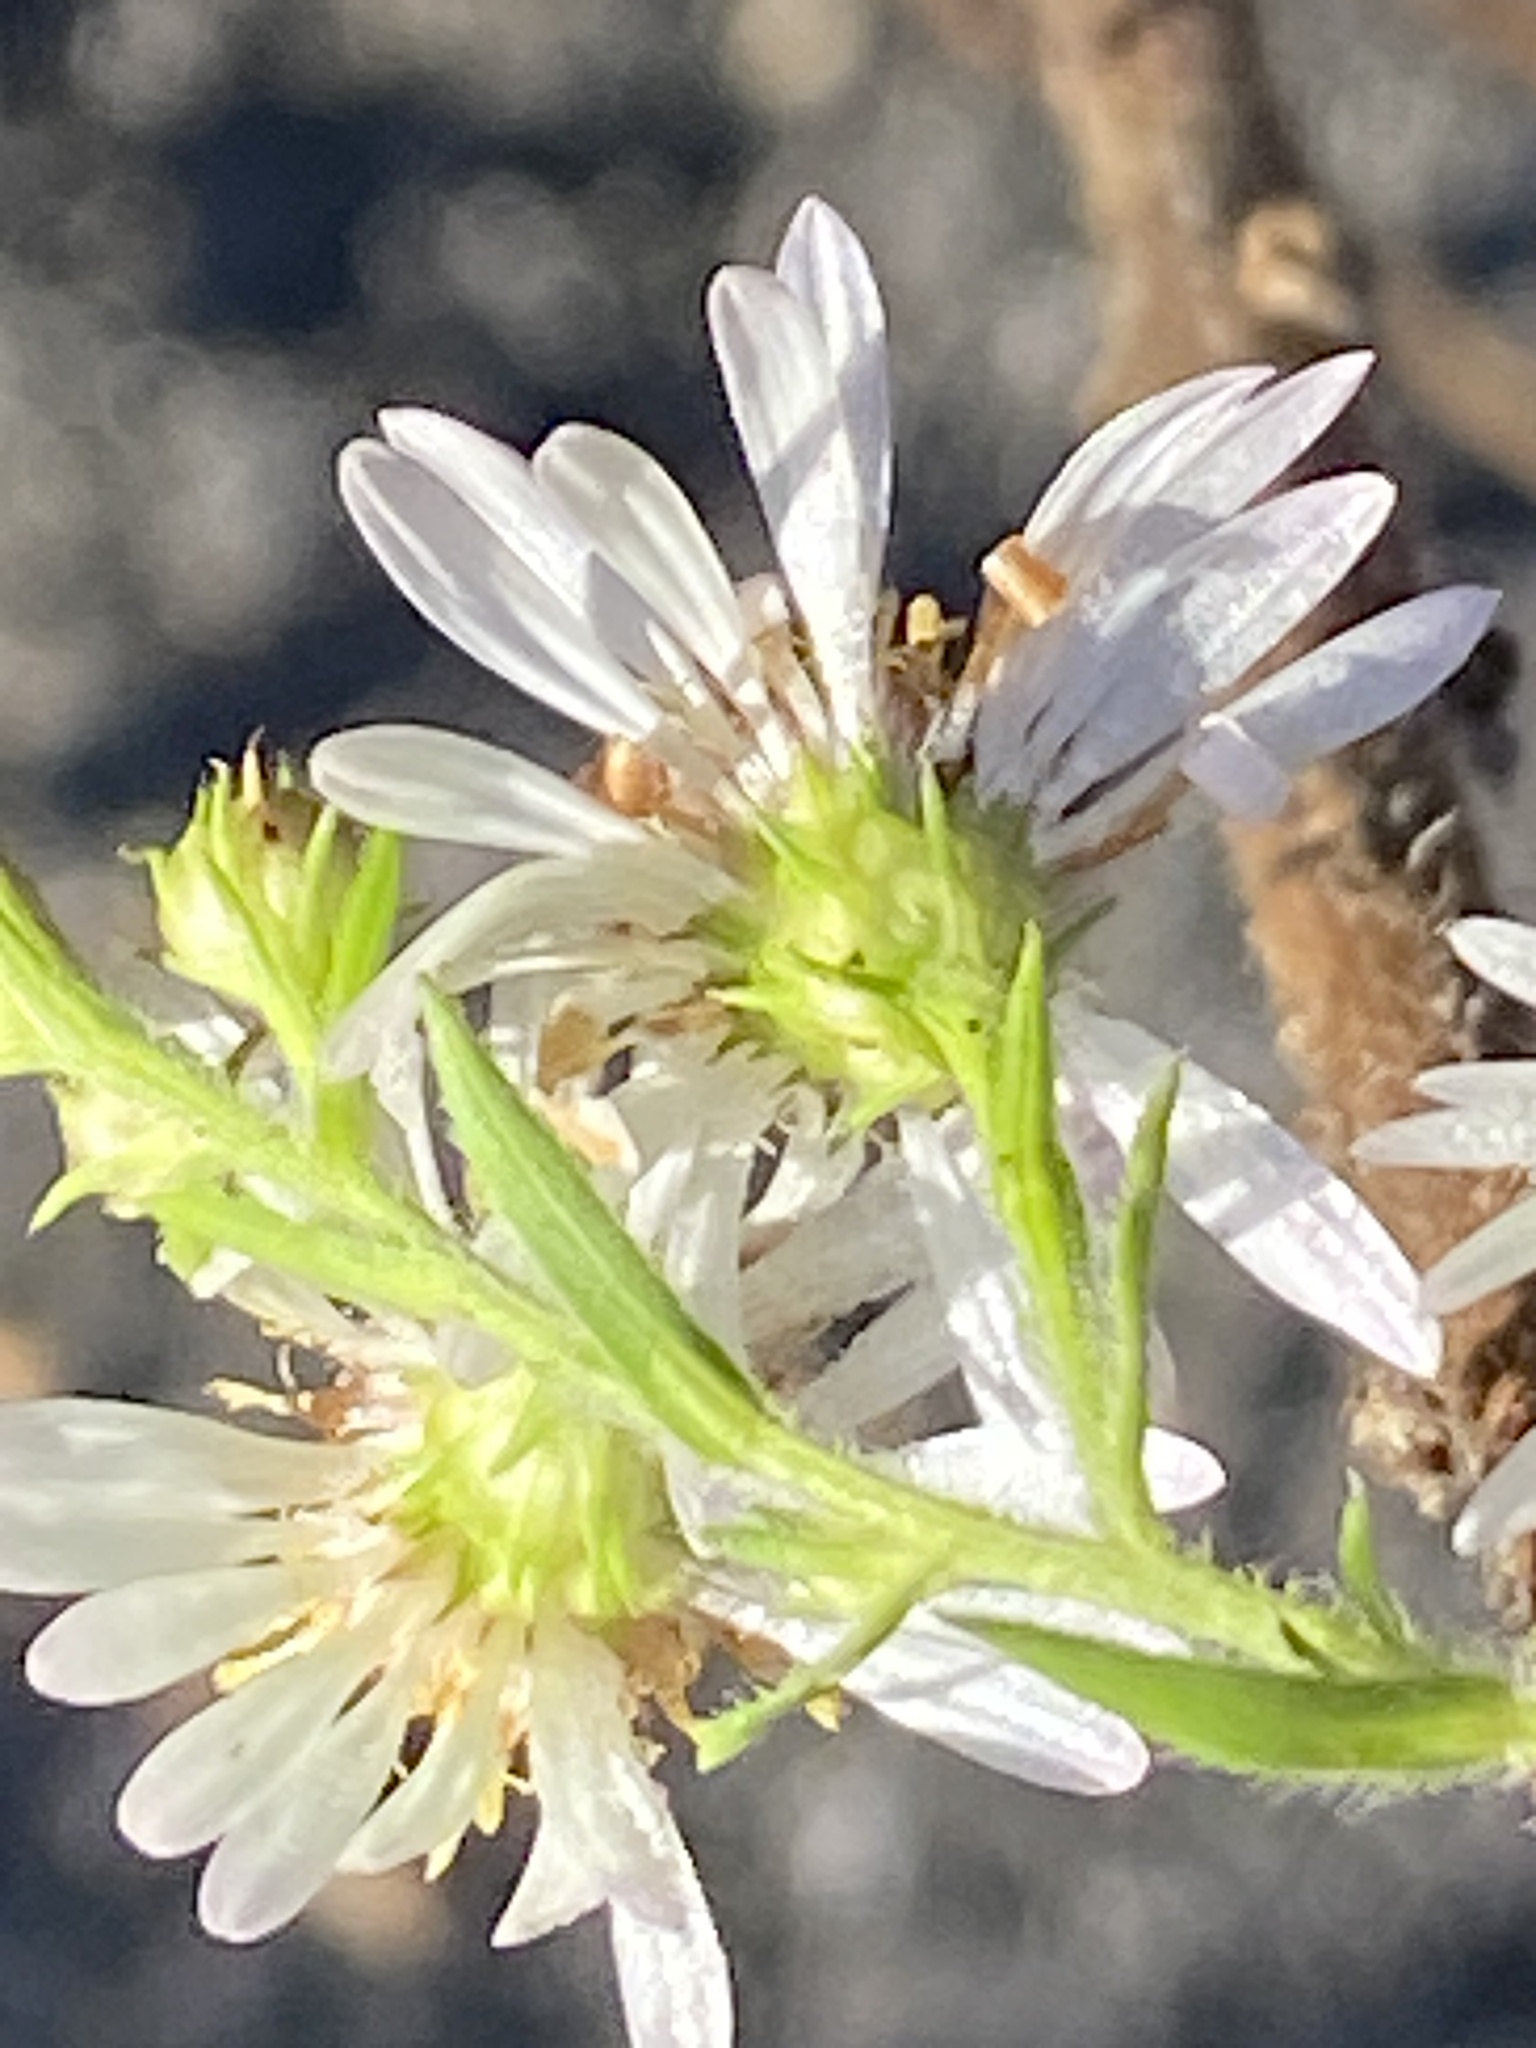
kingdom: Plantae
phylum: Tracheophyta
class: Magnoliopsida
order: Asterales
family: Asteraceae
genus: Symphyotrichum
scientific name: Symphyotrichum pilosum
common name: Awl aster
